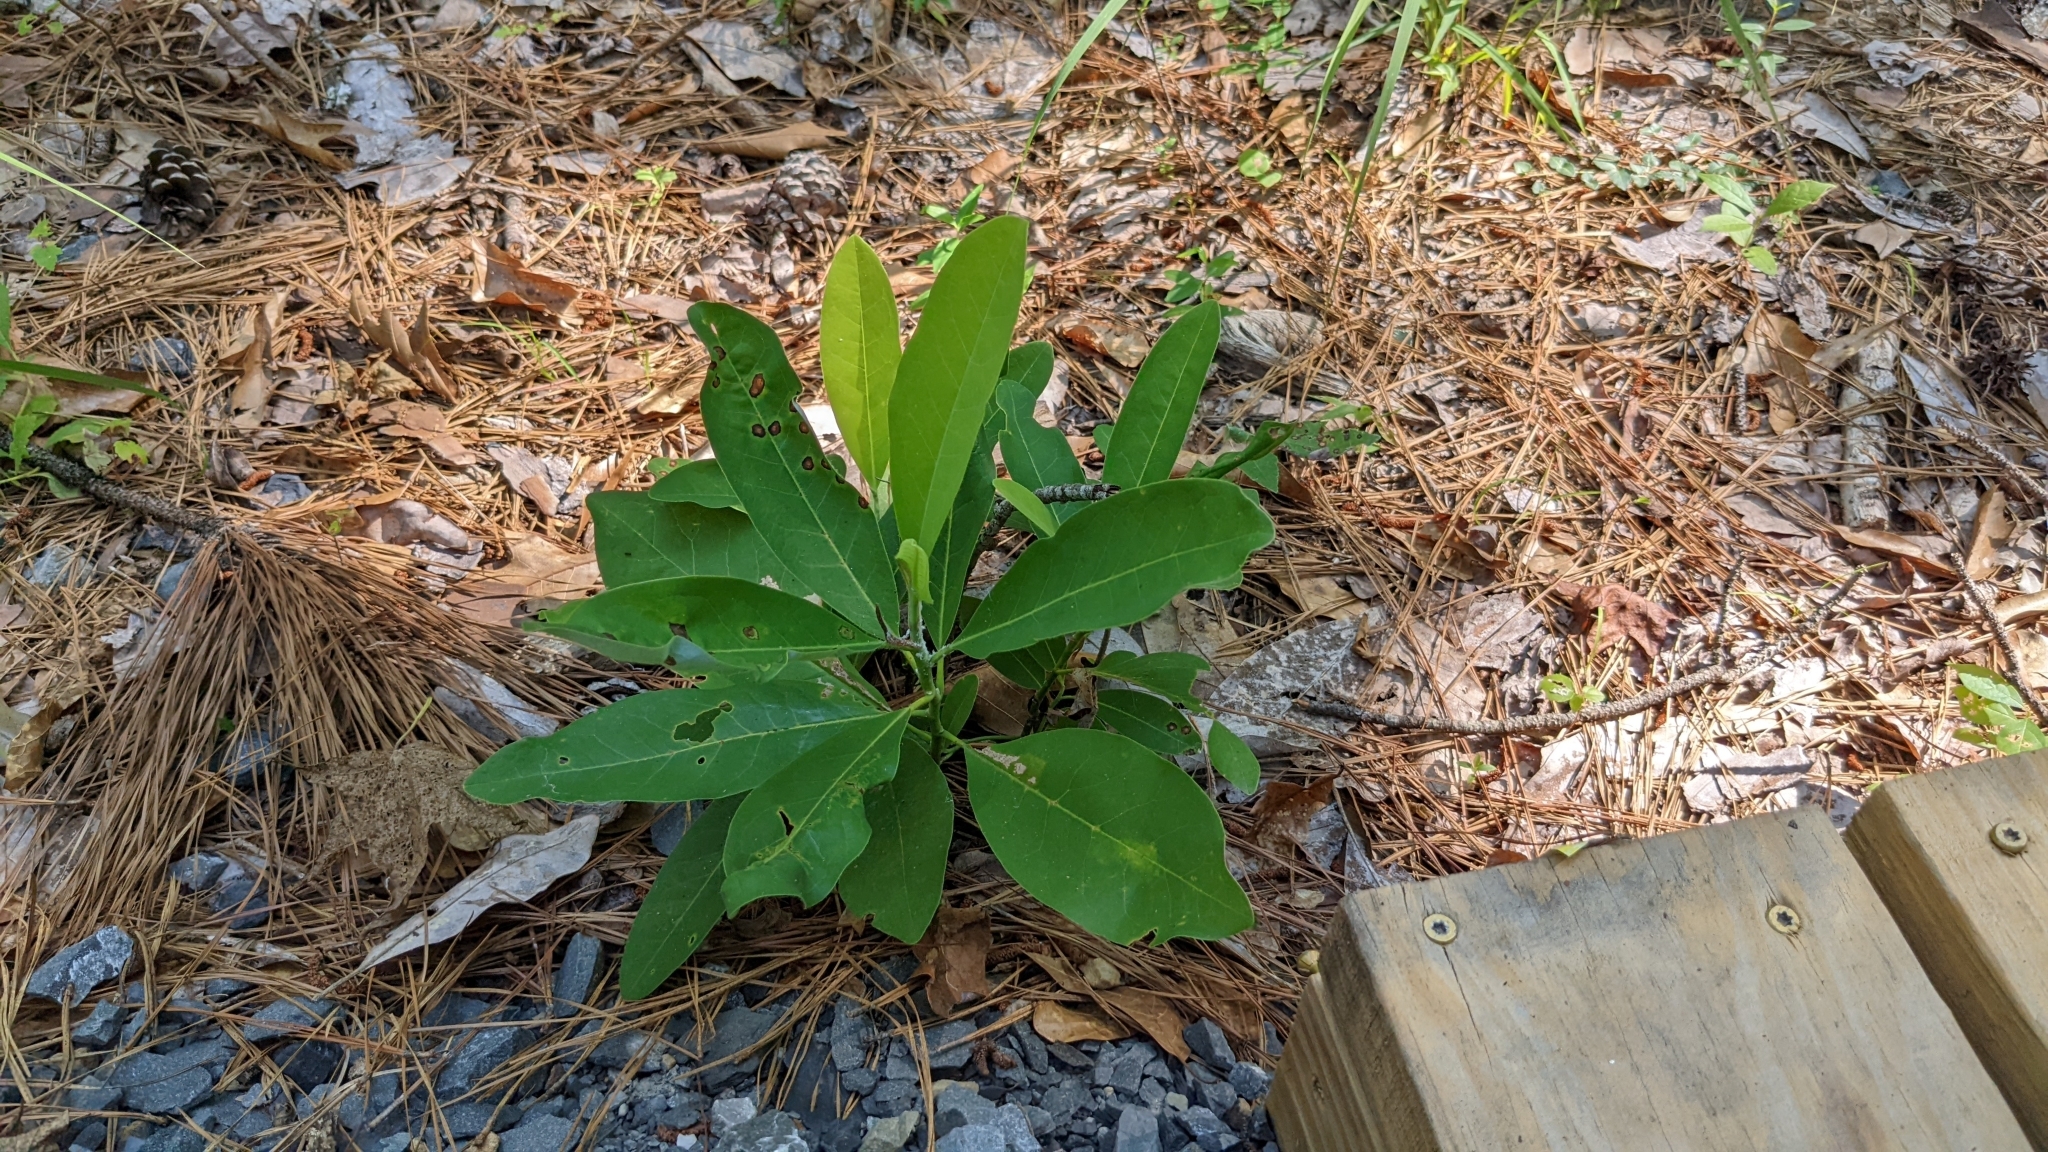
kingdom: Plantae
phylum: Tracheophyta
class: Magnoliopsida
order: Magnoliales
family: Magnoliaceae
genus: Magnolia
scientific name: Magnolia virginiana
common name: Swamp bay
